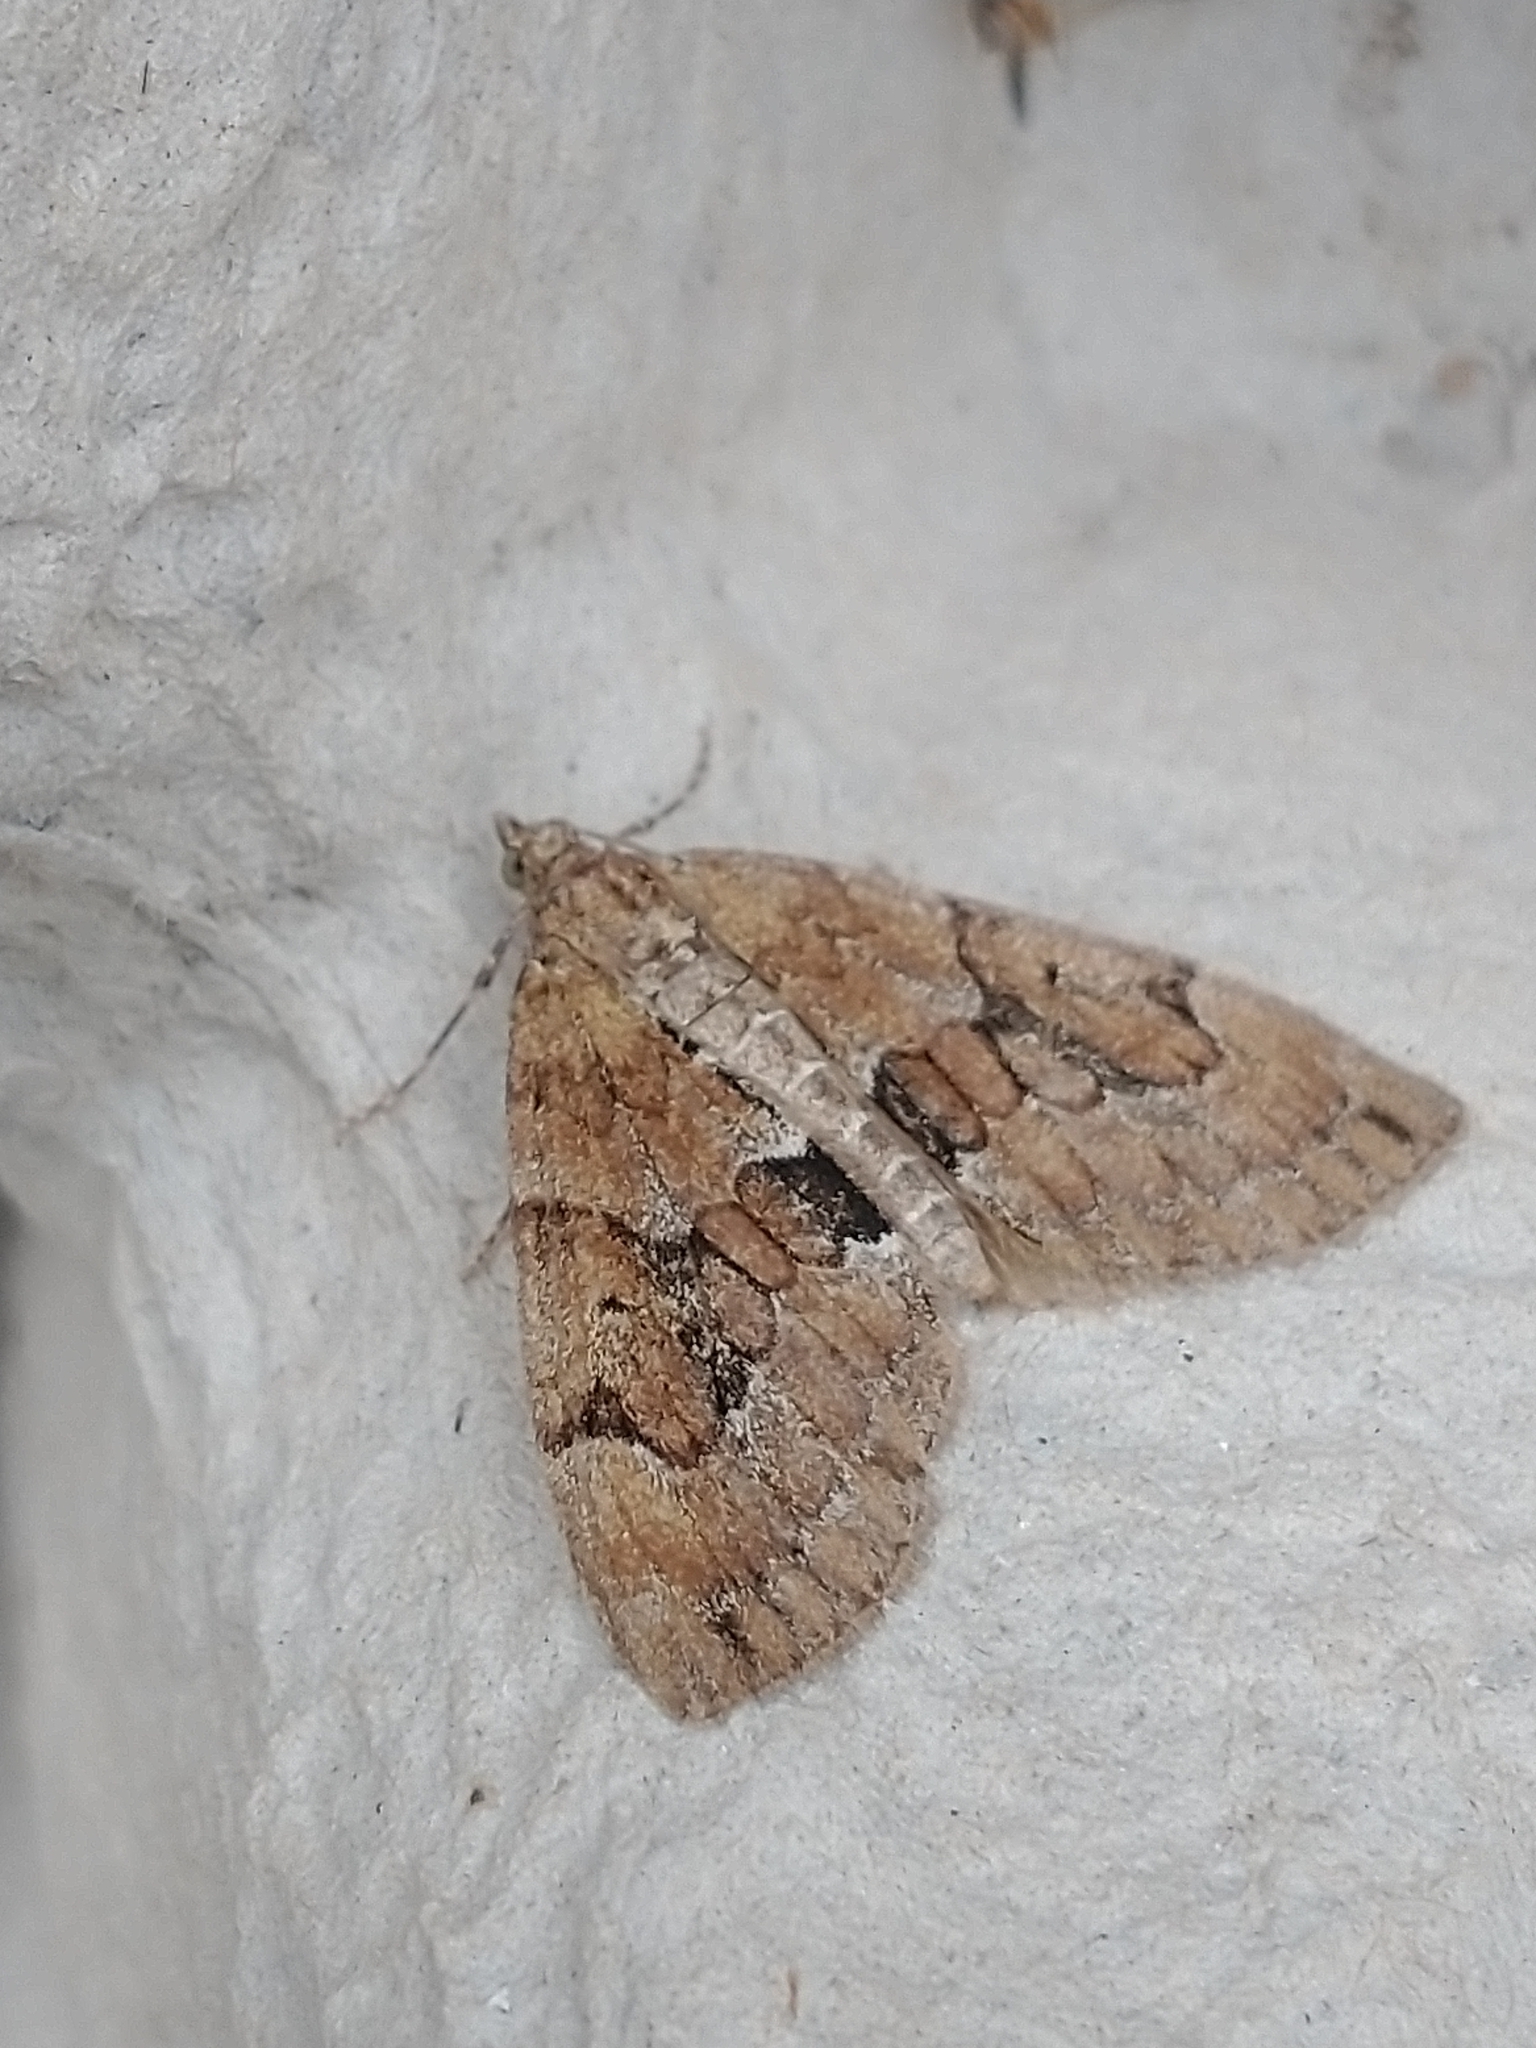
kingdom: Animalia
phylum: Arthropoda
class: Insecta
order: Lepidoptera
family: Geometridae
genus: Thera
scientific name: Thera obeliscata
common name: Grey pine carpet
